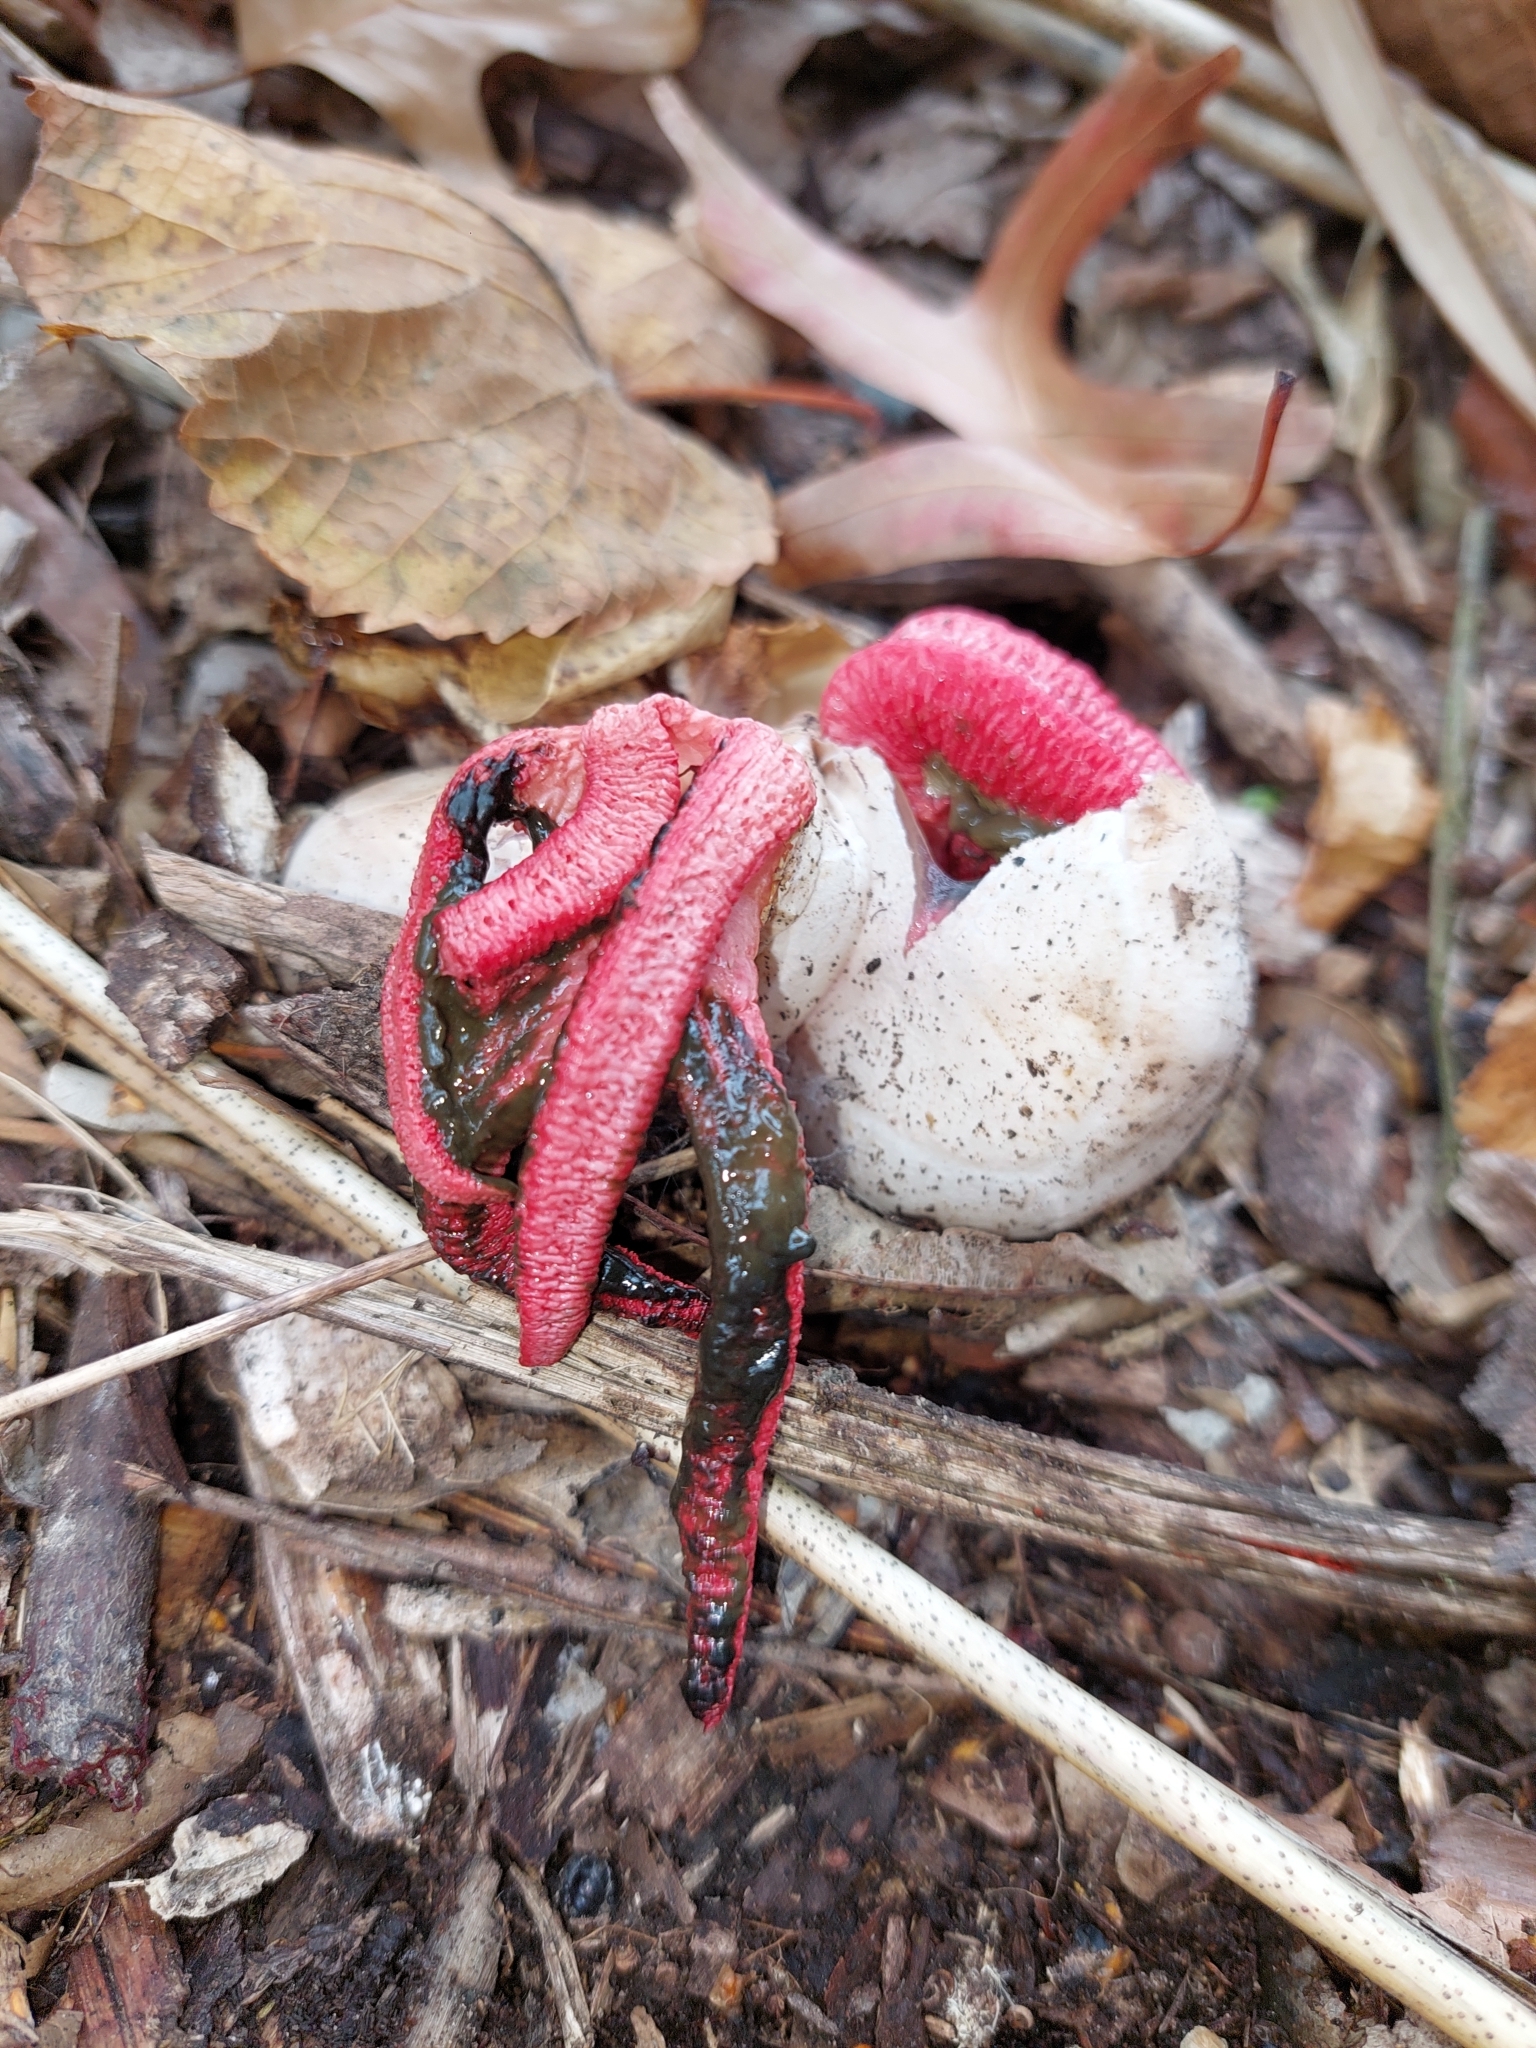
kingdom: Fungi
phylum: Basidiomycota
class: Agaricomycetes
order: Phallales
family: Phallaceae
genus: Clathrus
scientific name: Clathrus archeri
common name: Devil's fingers
